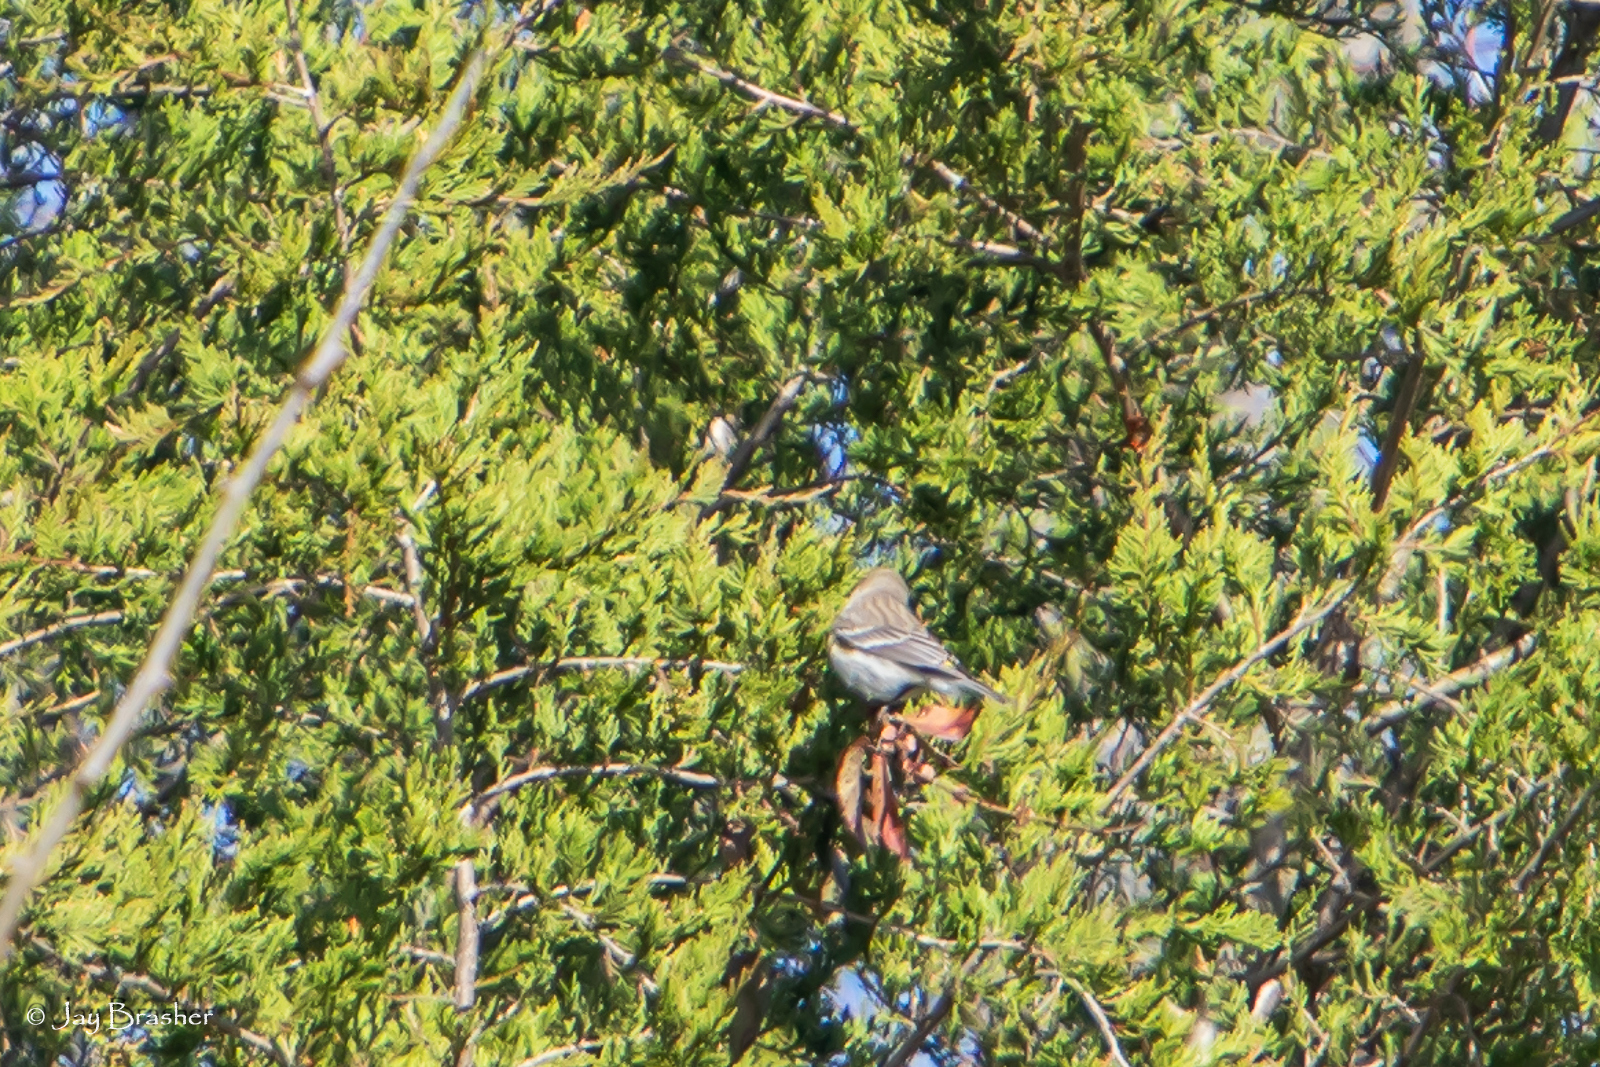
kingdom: Animalia
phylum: Chordata
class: Aves
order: Passeriformes
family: Parulidae
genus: Setophaga
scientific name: Setophaga coronata
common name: Myrtle warbler
